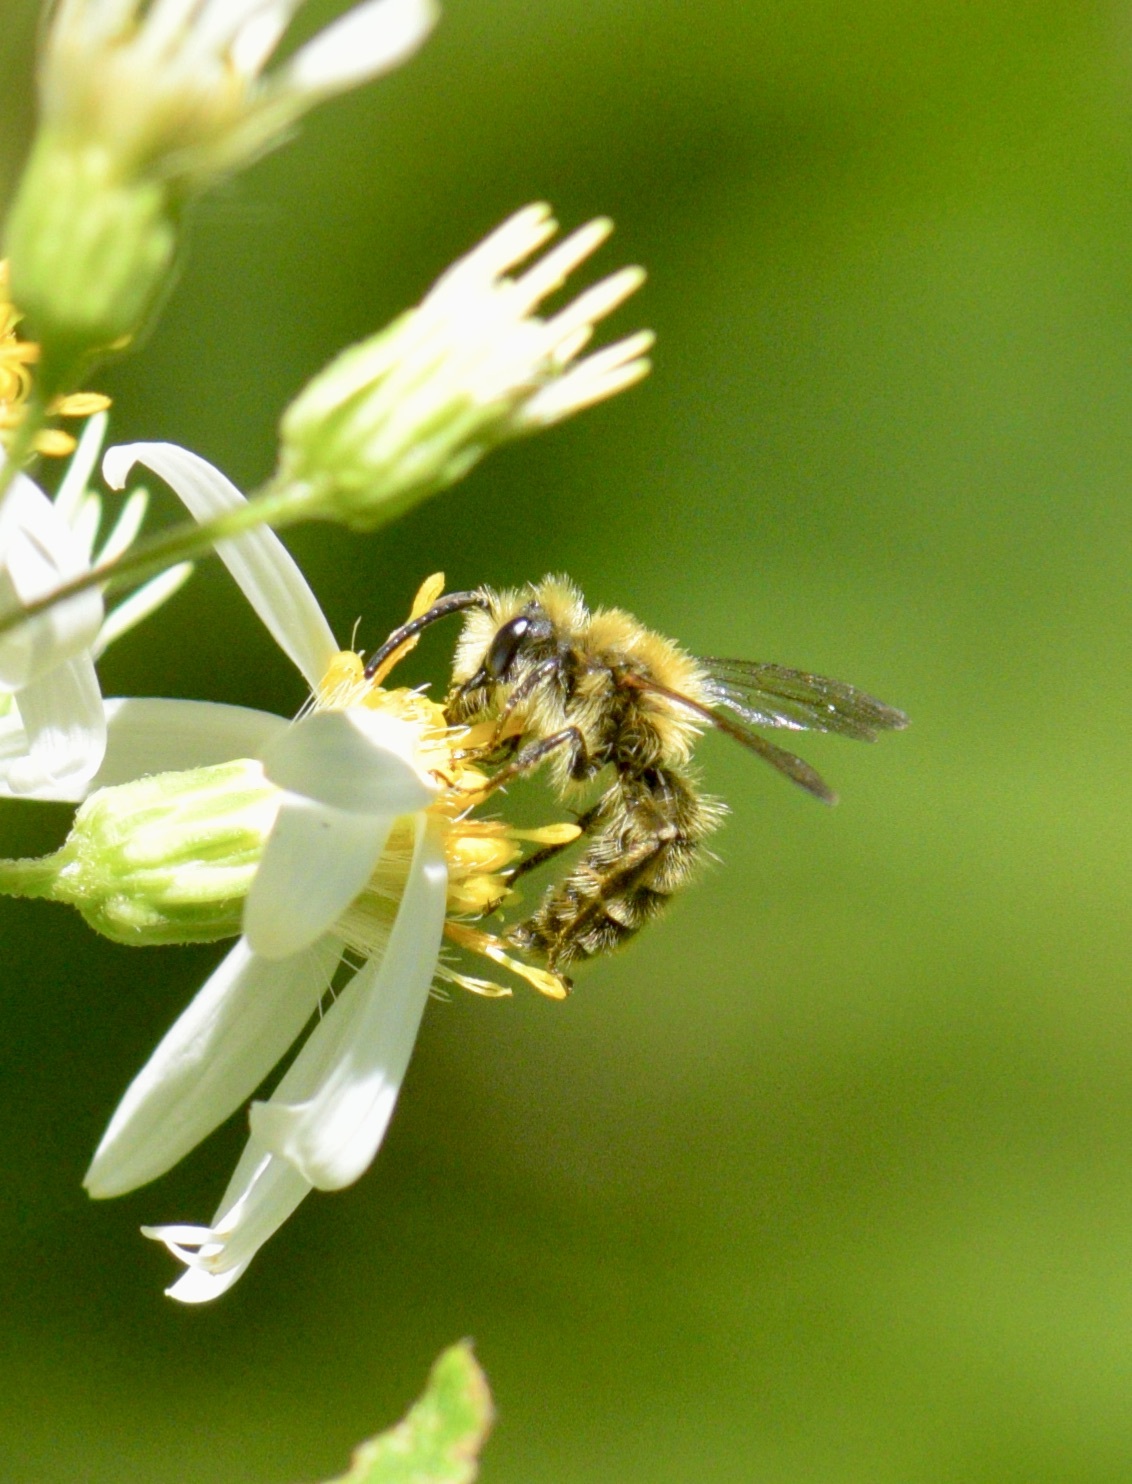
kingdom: Animalia
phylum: Arthropoda
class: Insecta
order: Hymenoptera
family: Andrenidae
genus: Andrena
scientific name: Andrena hirticincta
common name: Hairy-banded mining bee
